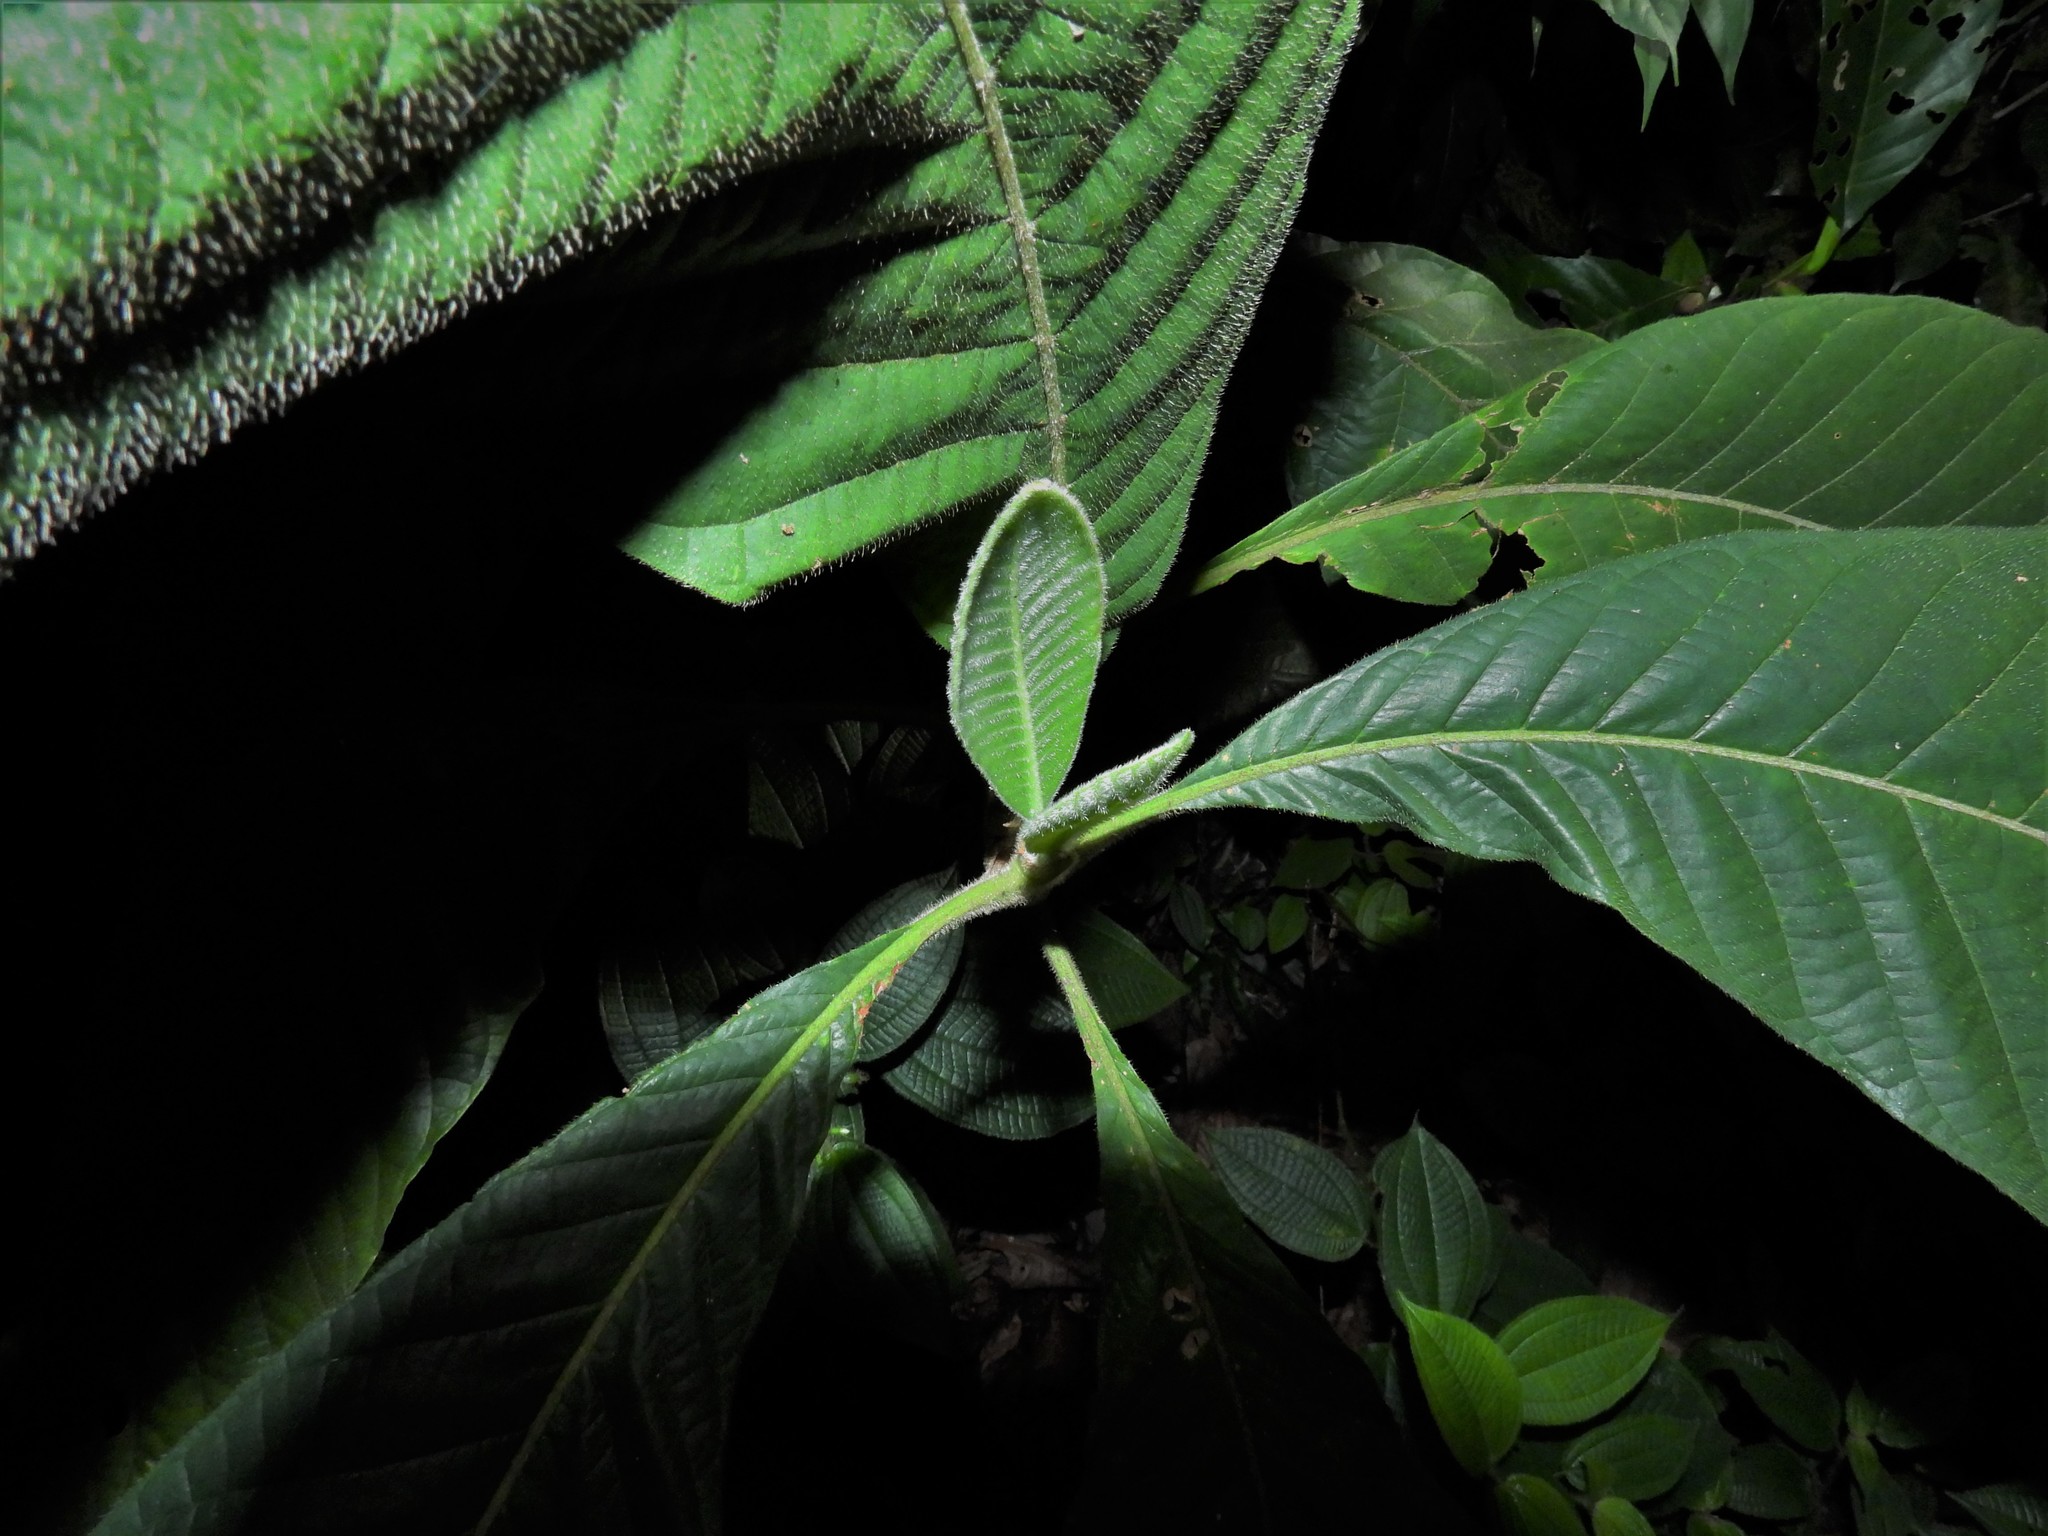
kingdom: Plantae
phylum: Tracheophyta
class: Magnoliopsida
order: Gentianales
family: Rubiaceae
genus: Psychotria
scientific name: Psychotria helferiana
